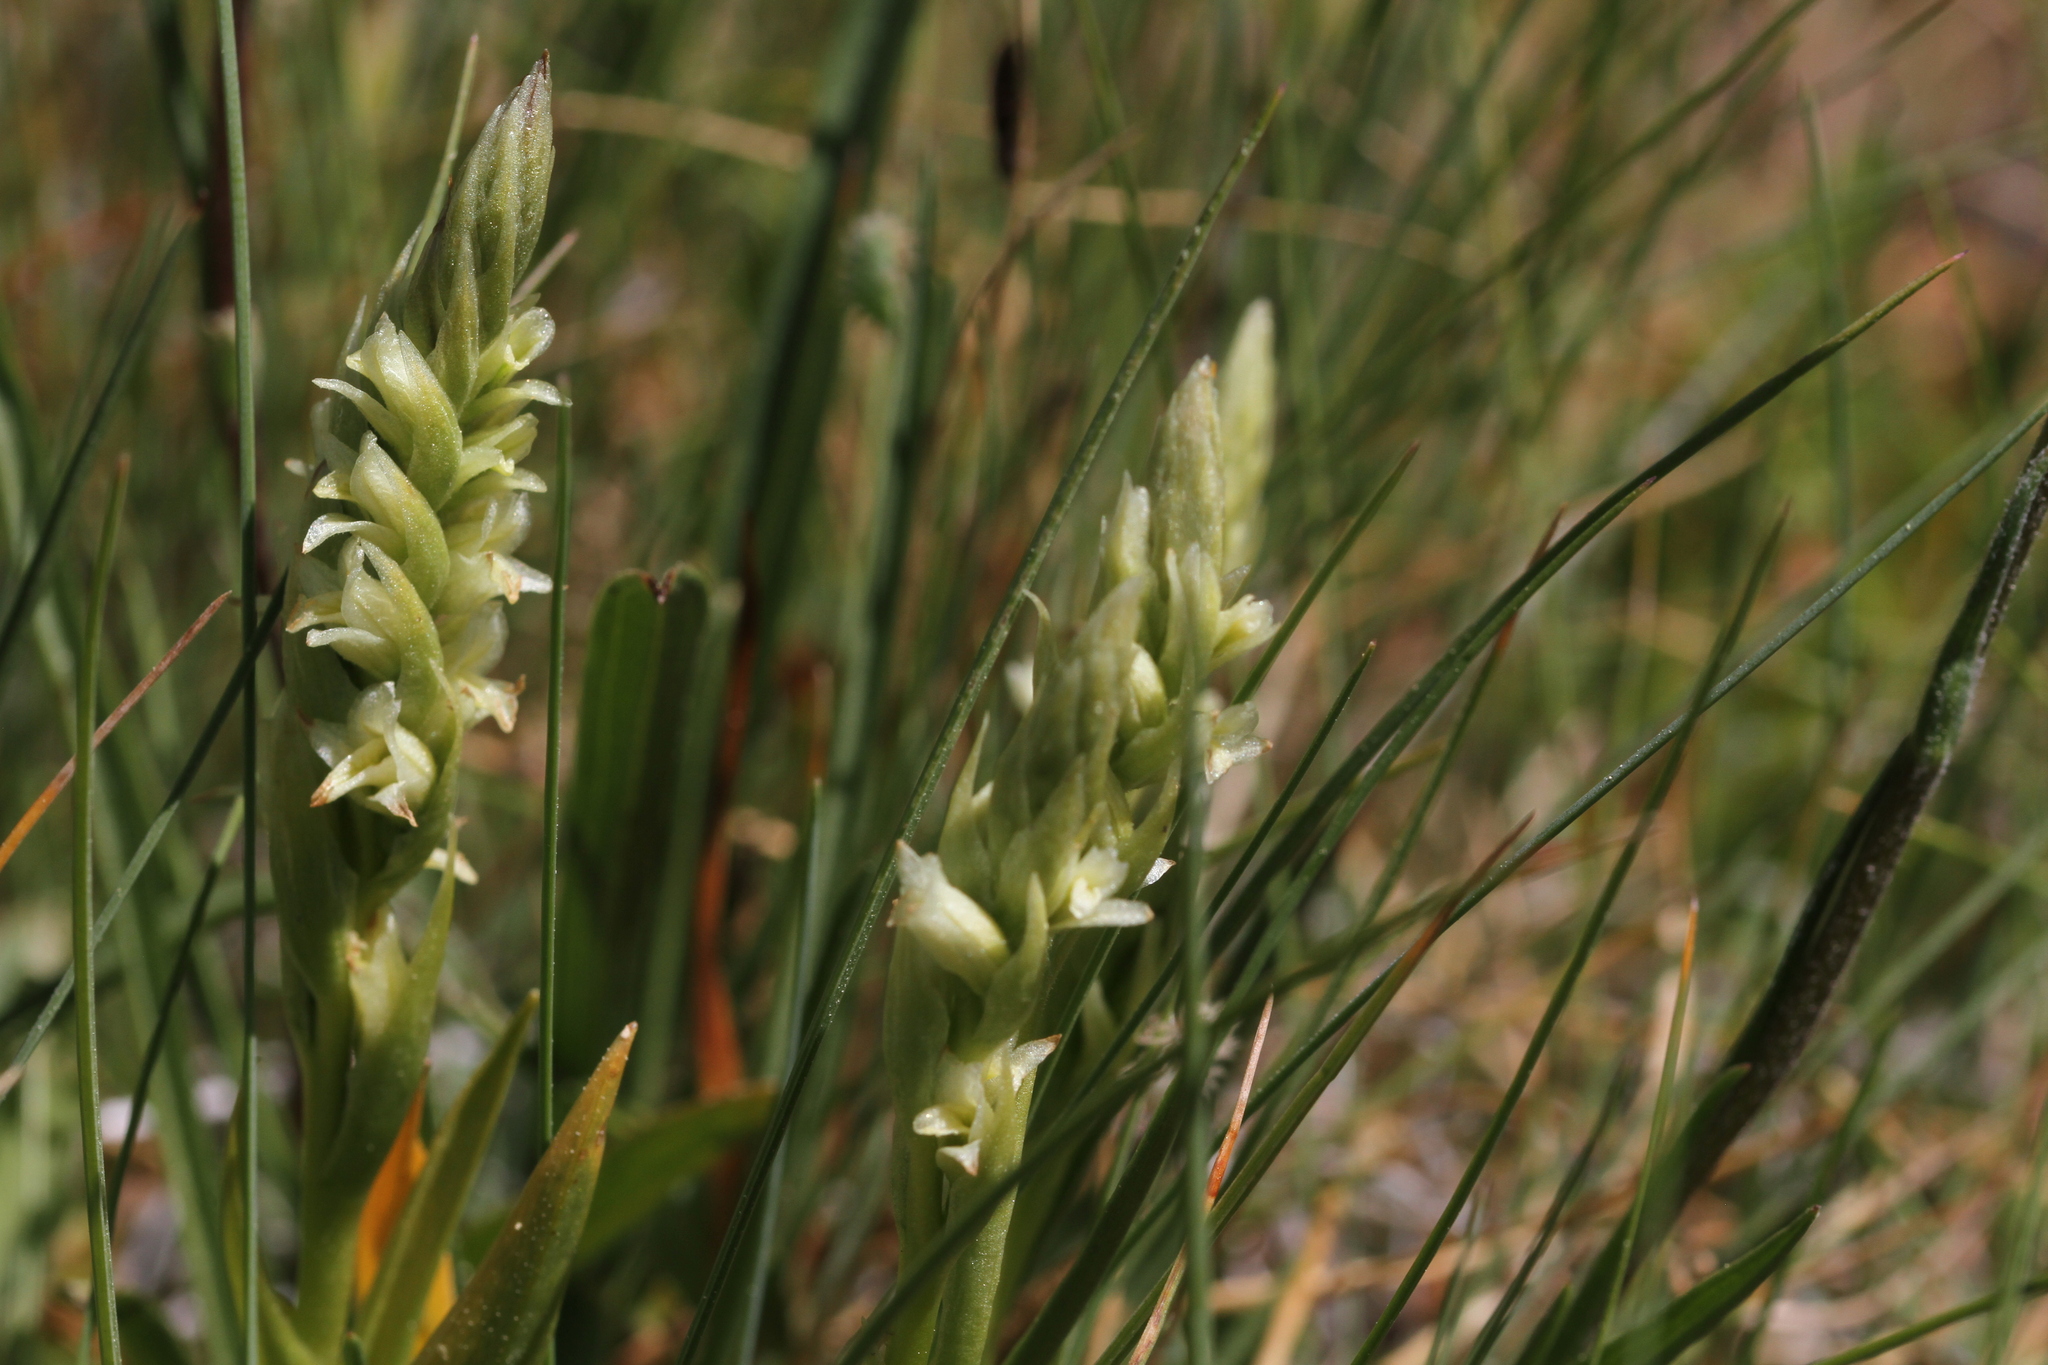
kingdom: Plantae
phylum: Tracheophyta
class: Liliopsida
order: Asparagales
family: Orchidaceae
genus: Spiranthes
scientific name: Spiranthes stellata
